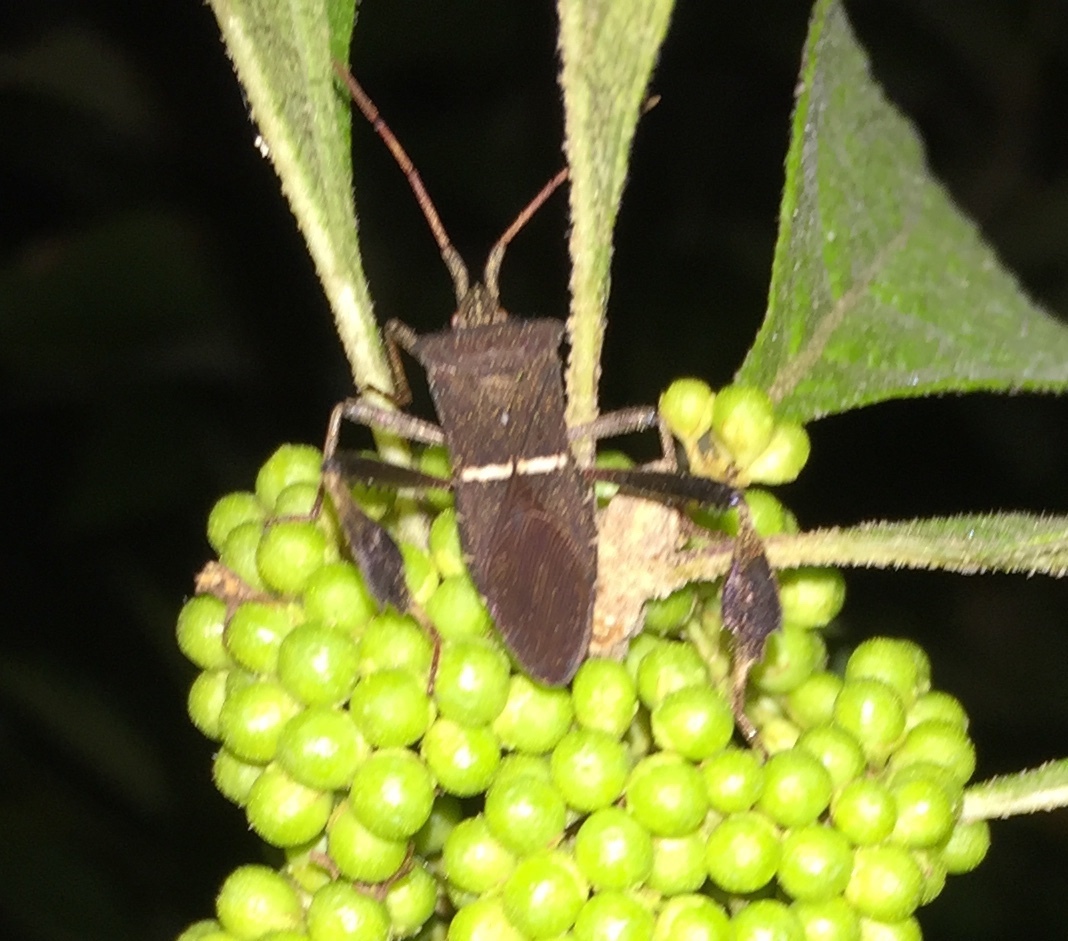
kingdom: Animalia
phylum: Arthropoda
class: Insecta
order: Hemiptera
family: Coreidae
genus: Leptoglossus
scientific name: Leptoglossus phyllopus
